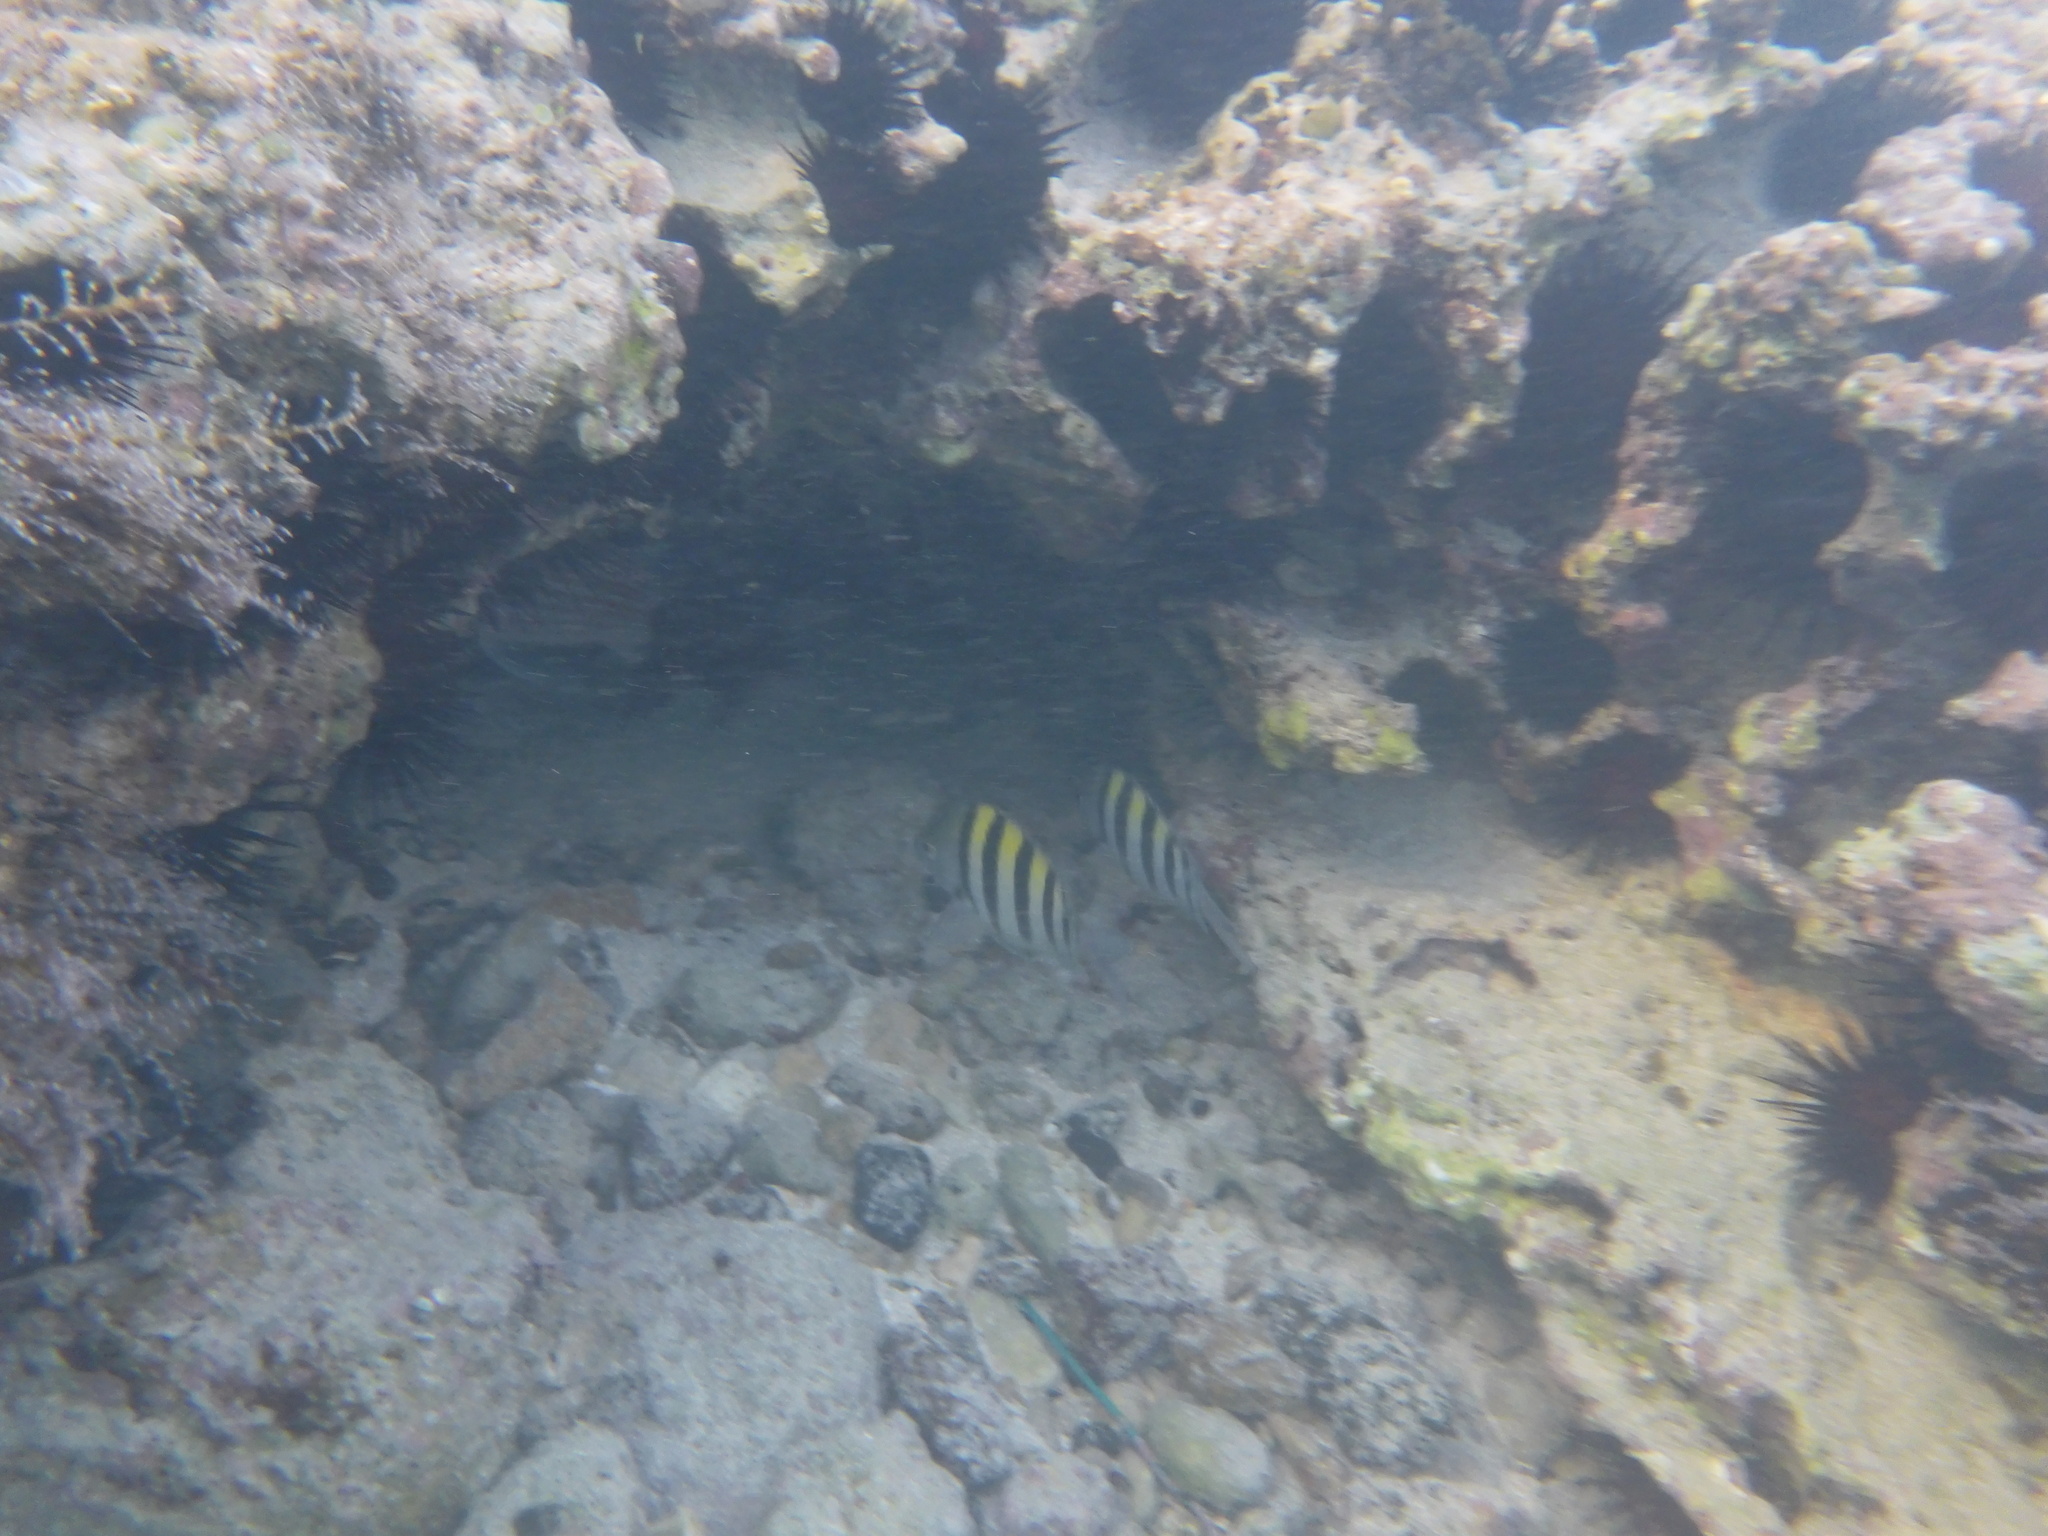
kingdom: Animalia
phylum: Chordata
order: Perciformes
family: Pomacentridae
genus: Abudefduf
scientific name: Abudefduf saxatilis
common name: Sergeant major
